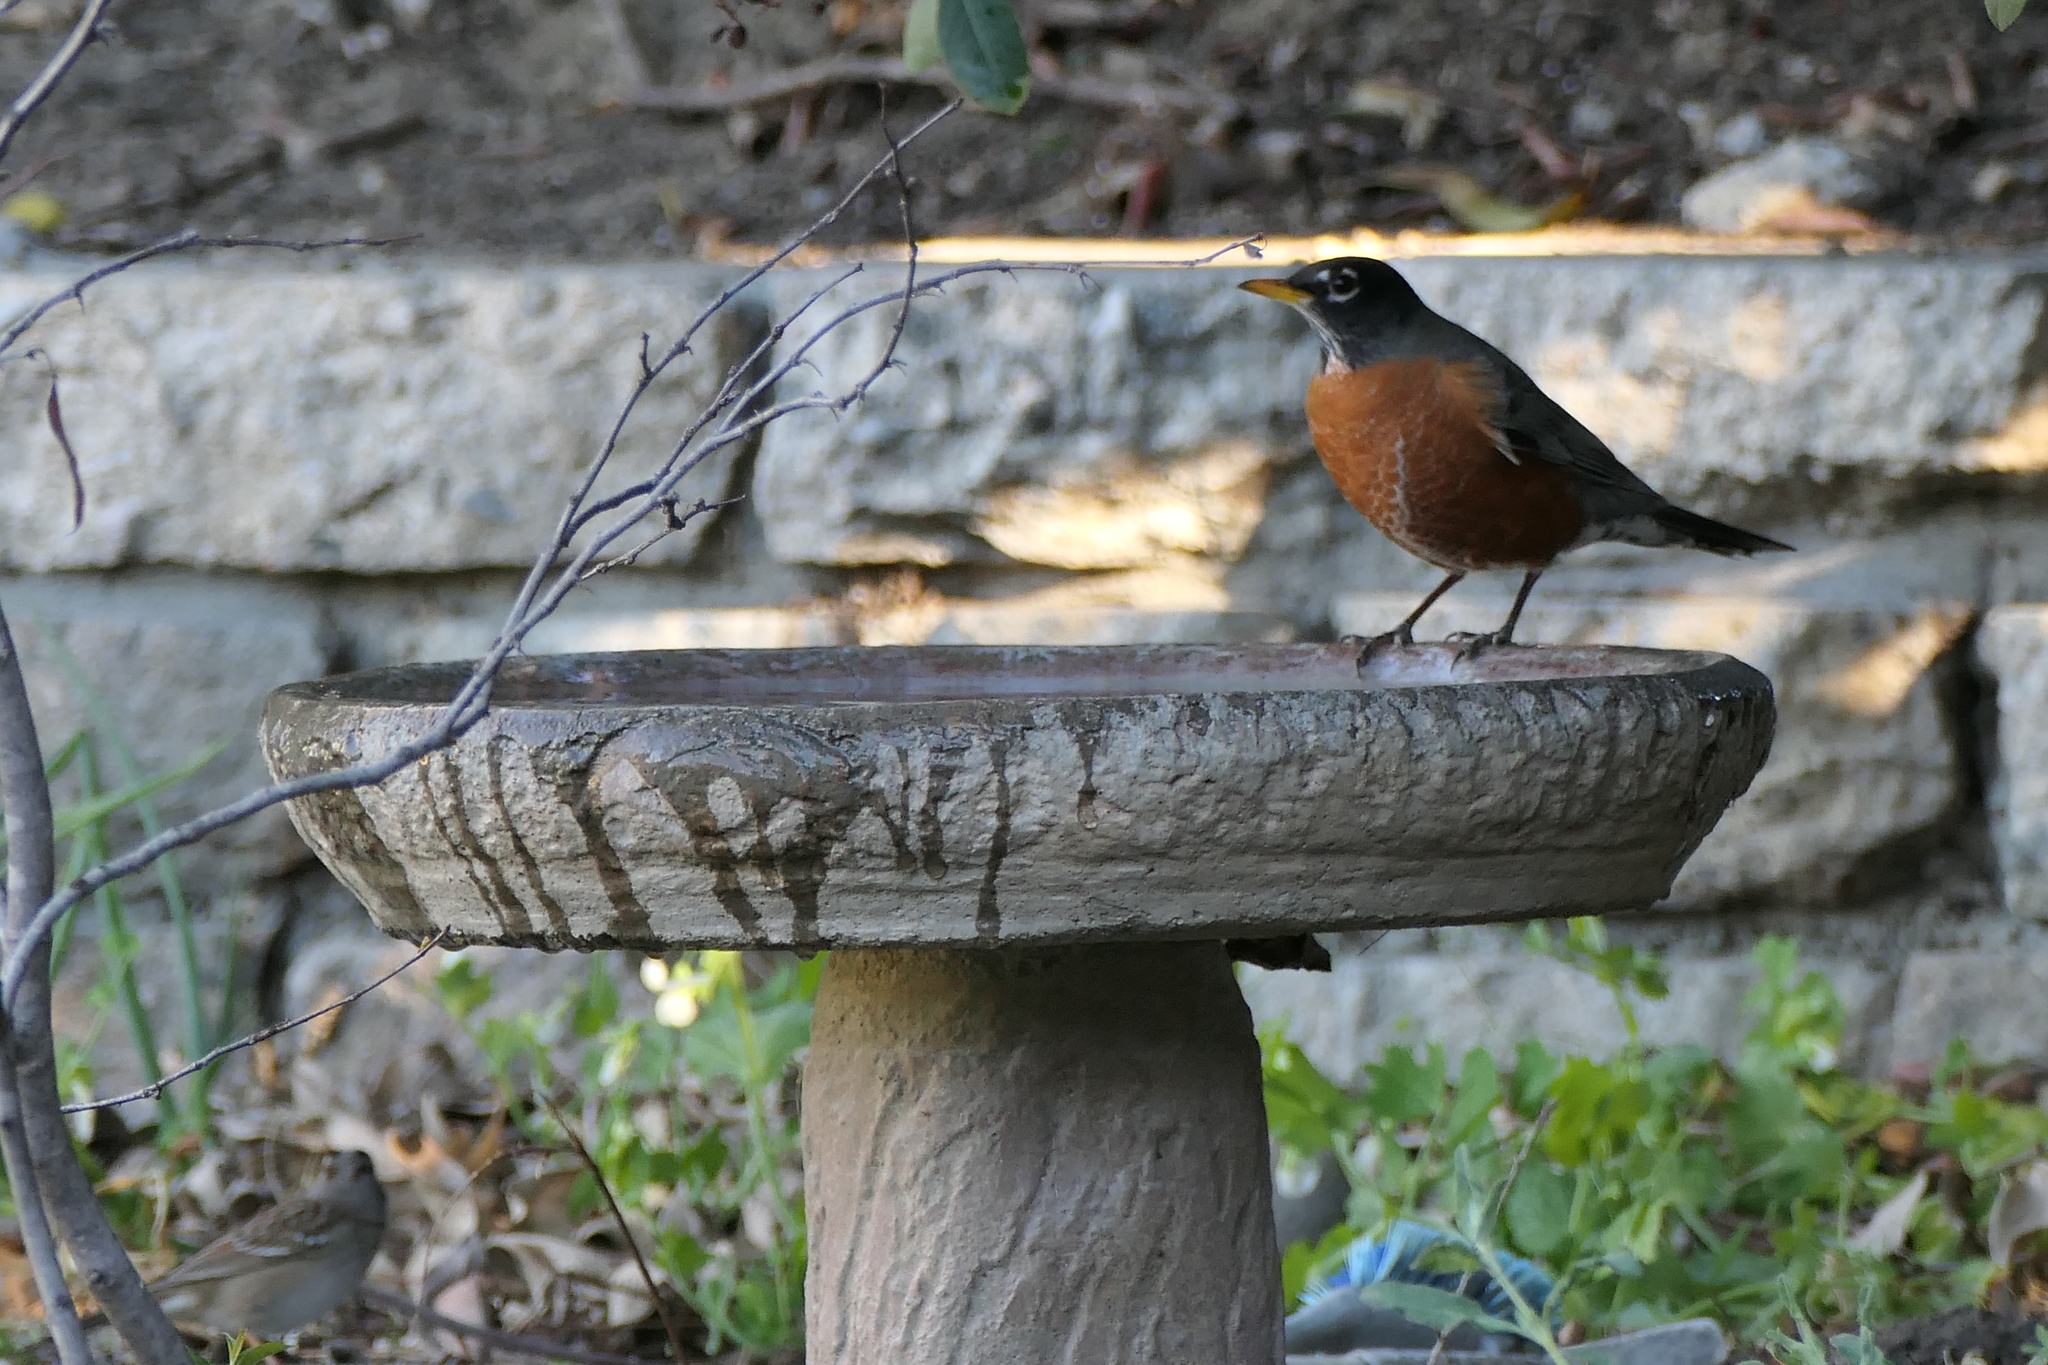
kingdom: Animalia
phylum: Chordata
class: Aves
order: Passeriformes
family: Turdidae
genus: Turdus
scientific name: Turdus migratorius
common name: American robin
